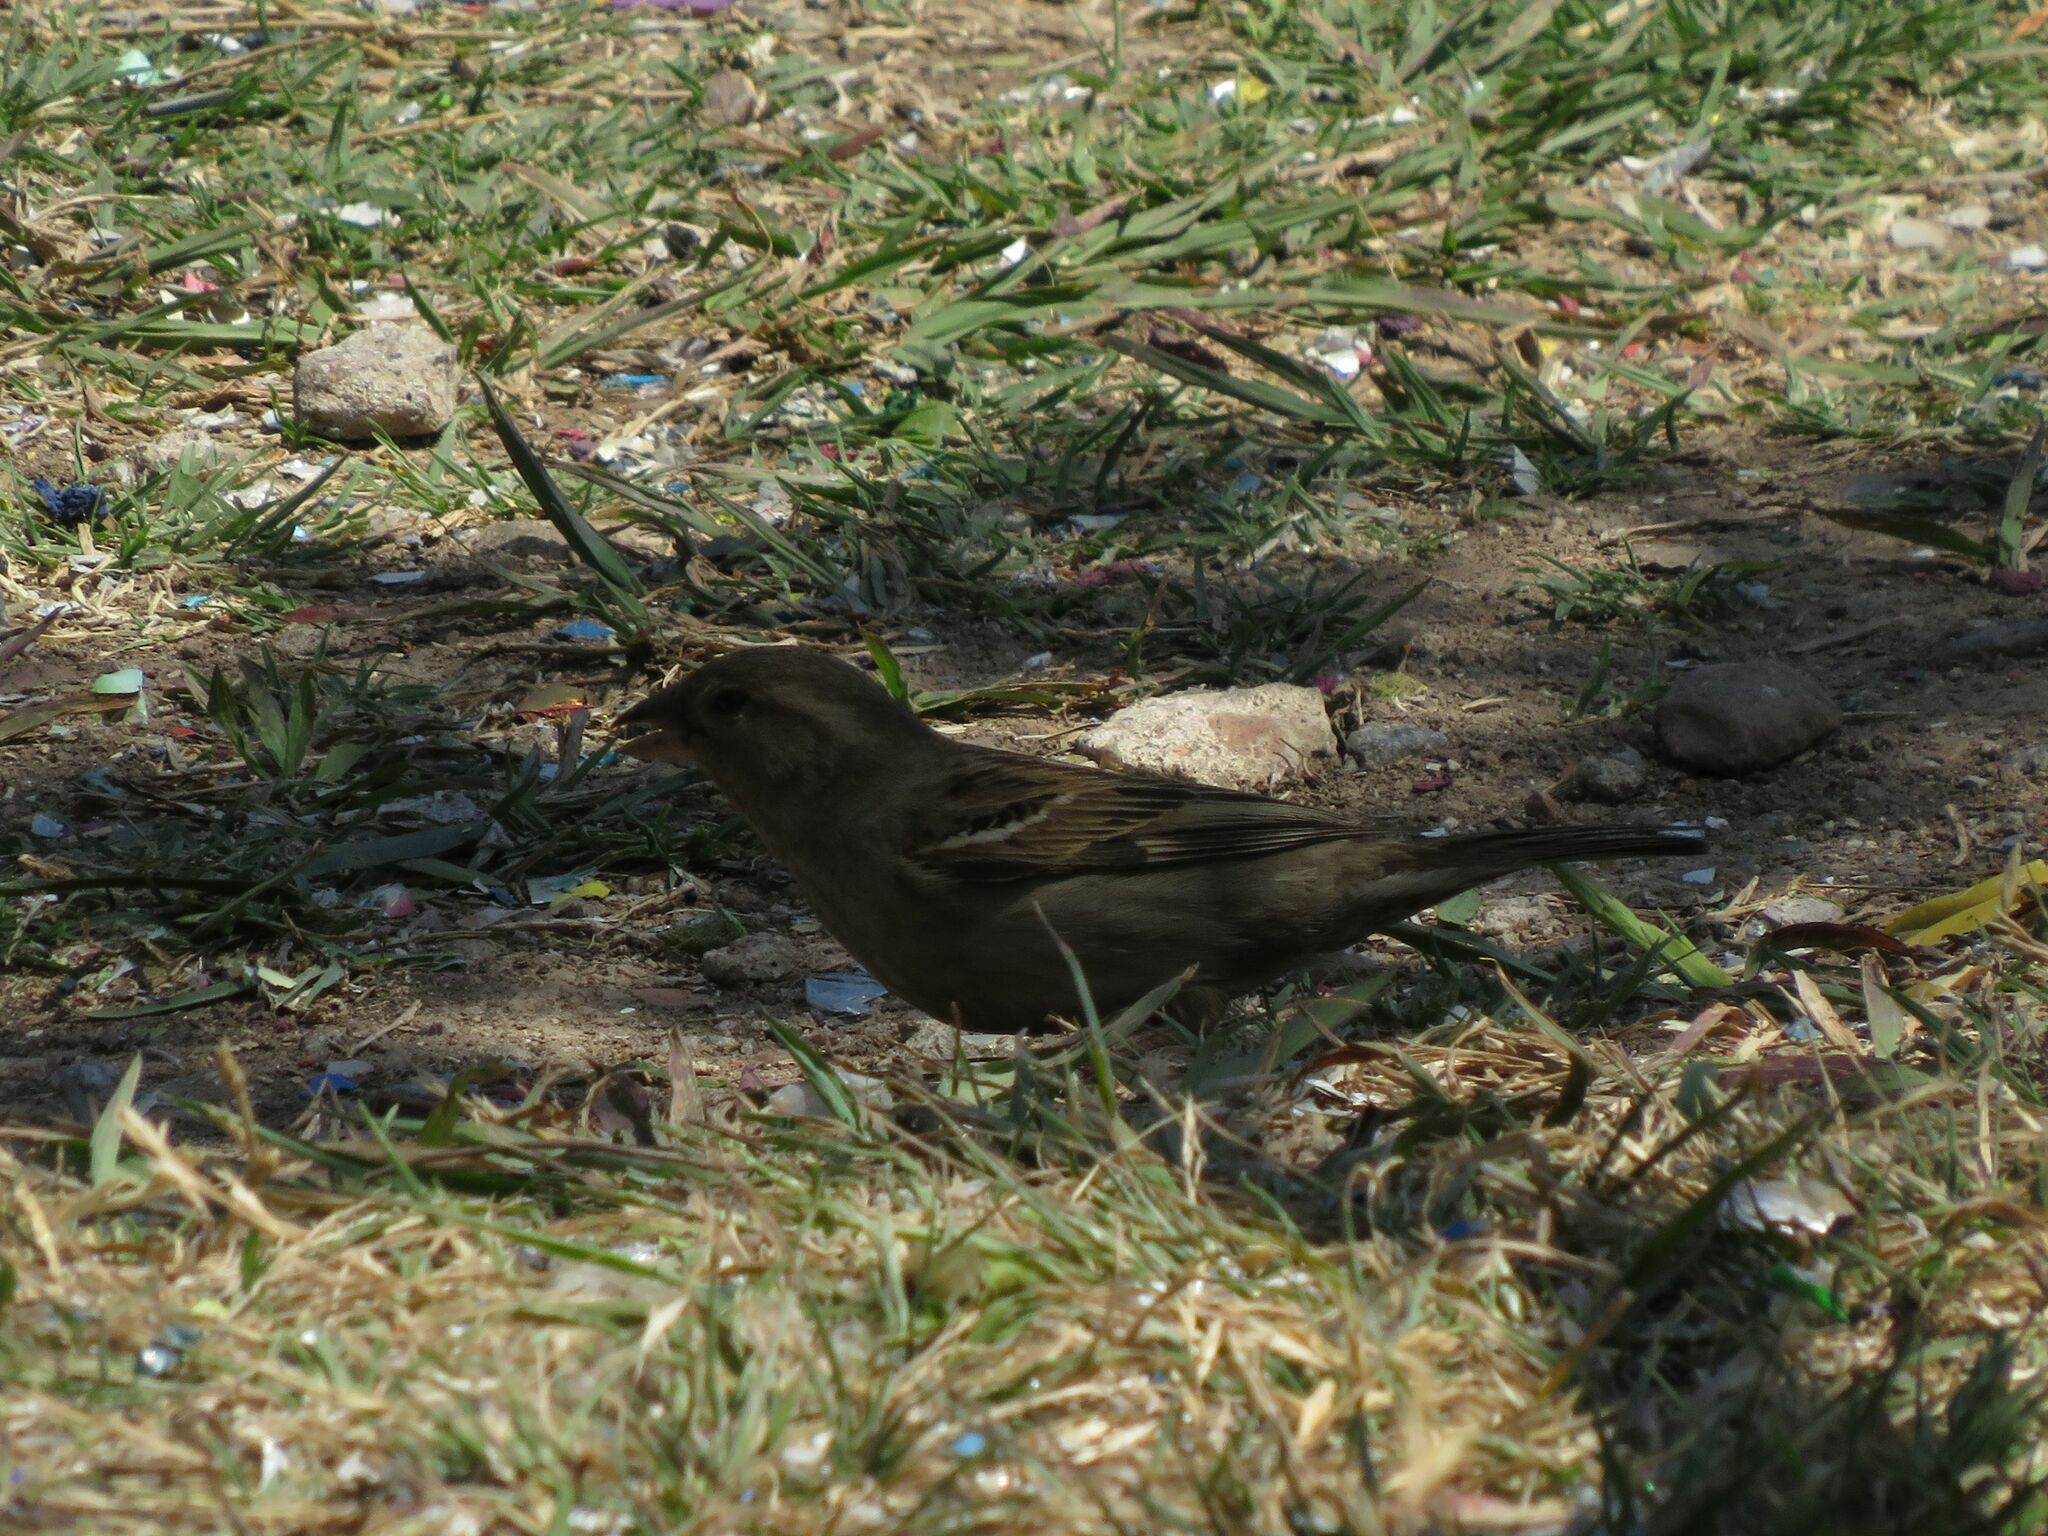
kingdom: Animalia
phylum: Chordata
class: Aves
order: Passeriformes
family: Passeridae
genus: Passer
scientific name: Passer domesticus
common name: House sparrow
